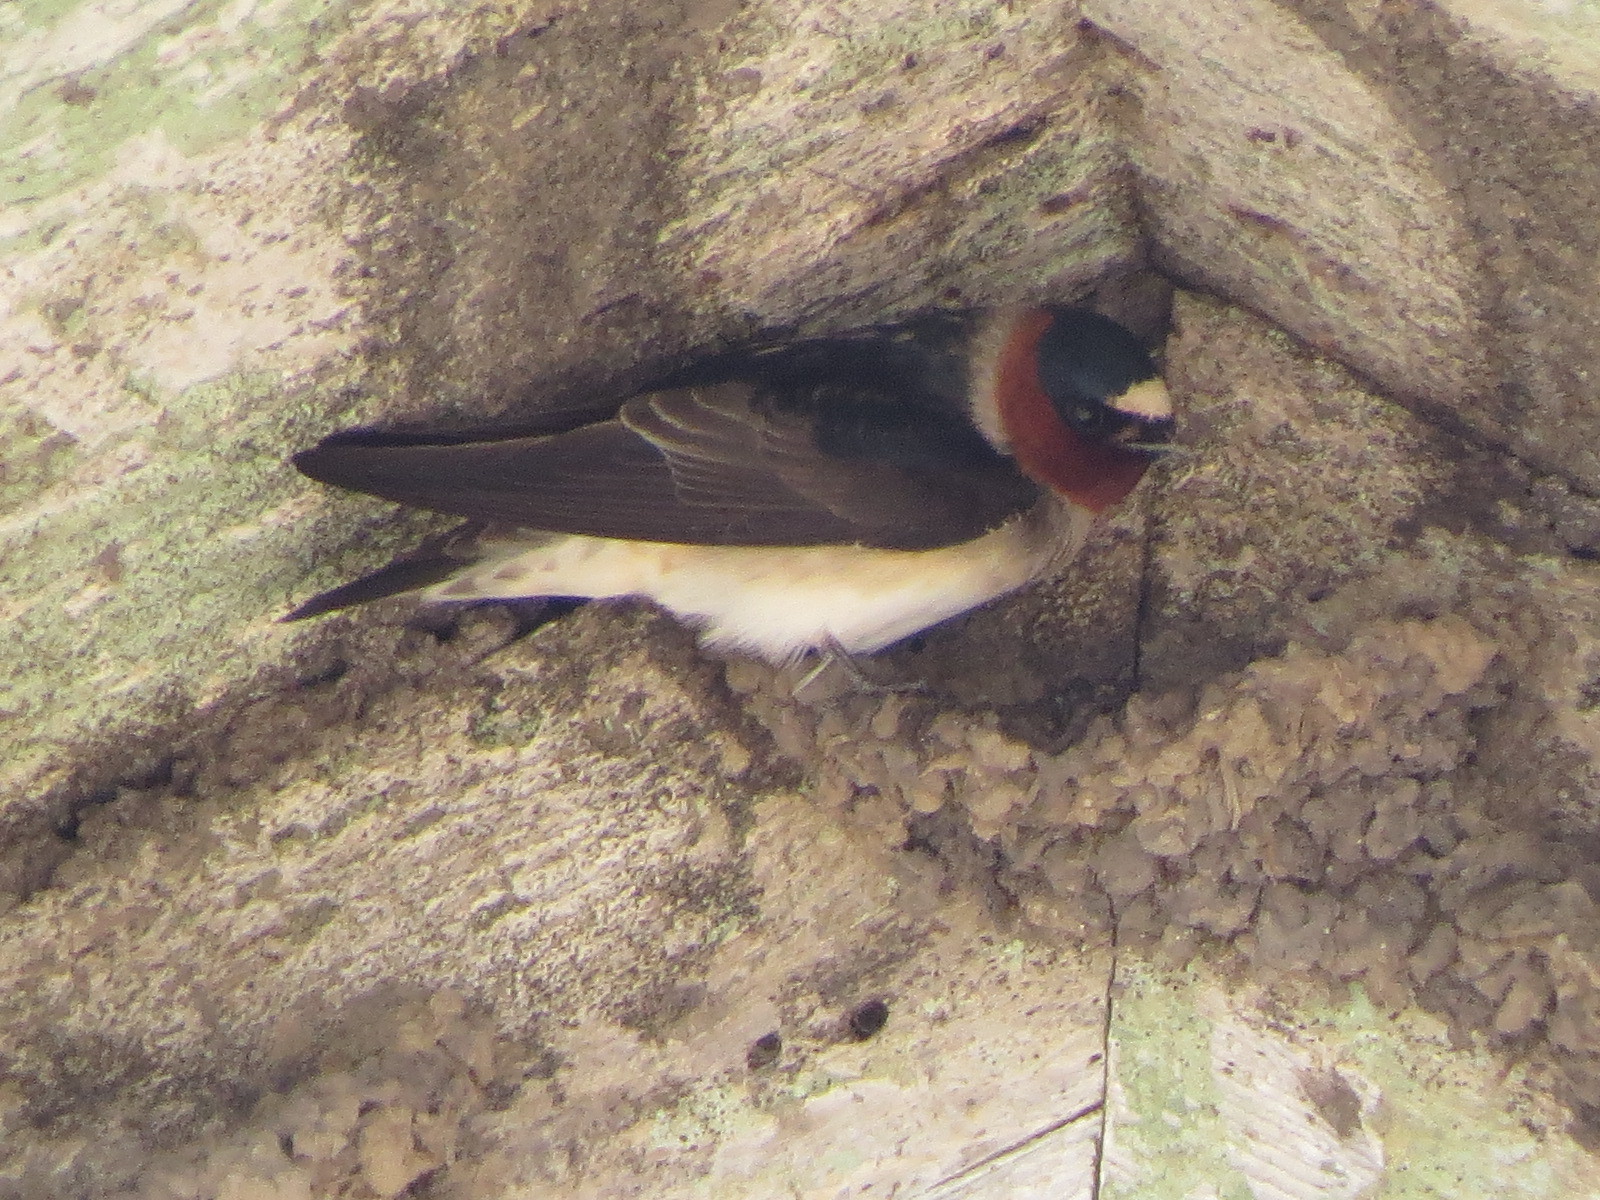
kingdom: Animalia
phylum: Chordata
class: Aves
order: Passeriformes
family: Hirundinidae
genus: Petrochelidon
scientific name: Petrochelidon pyrrhonota
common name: American cliff swallow
